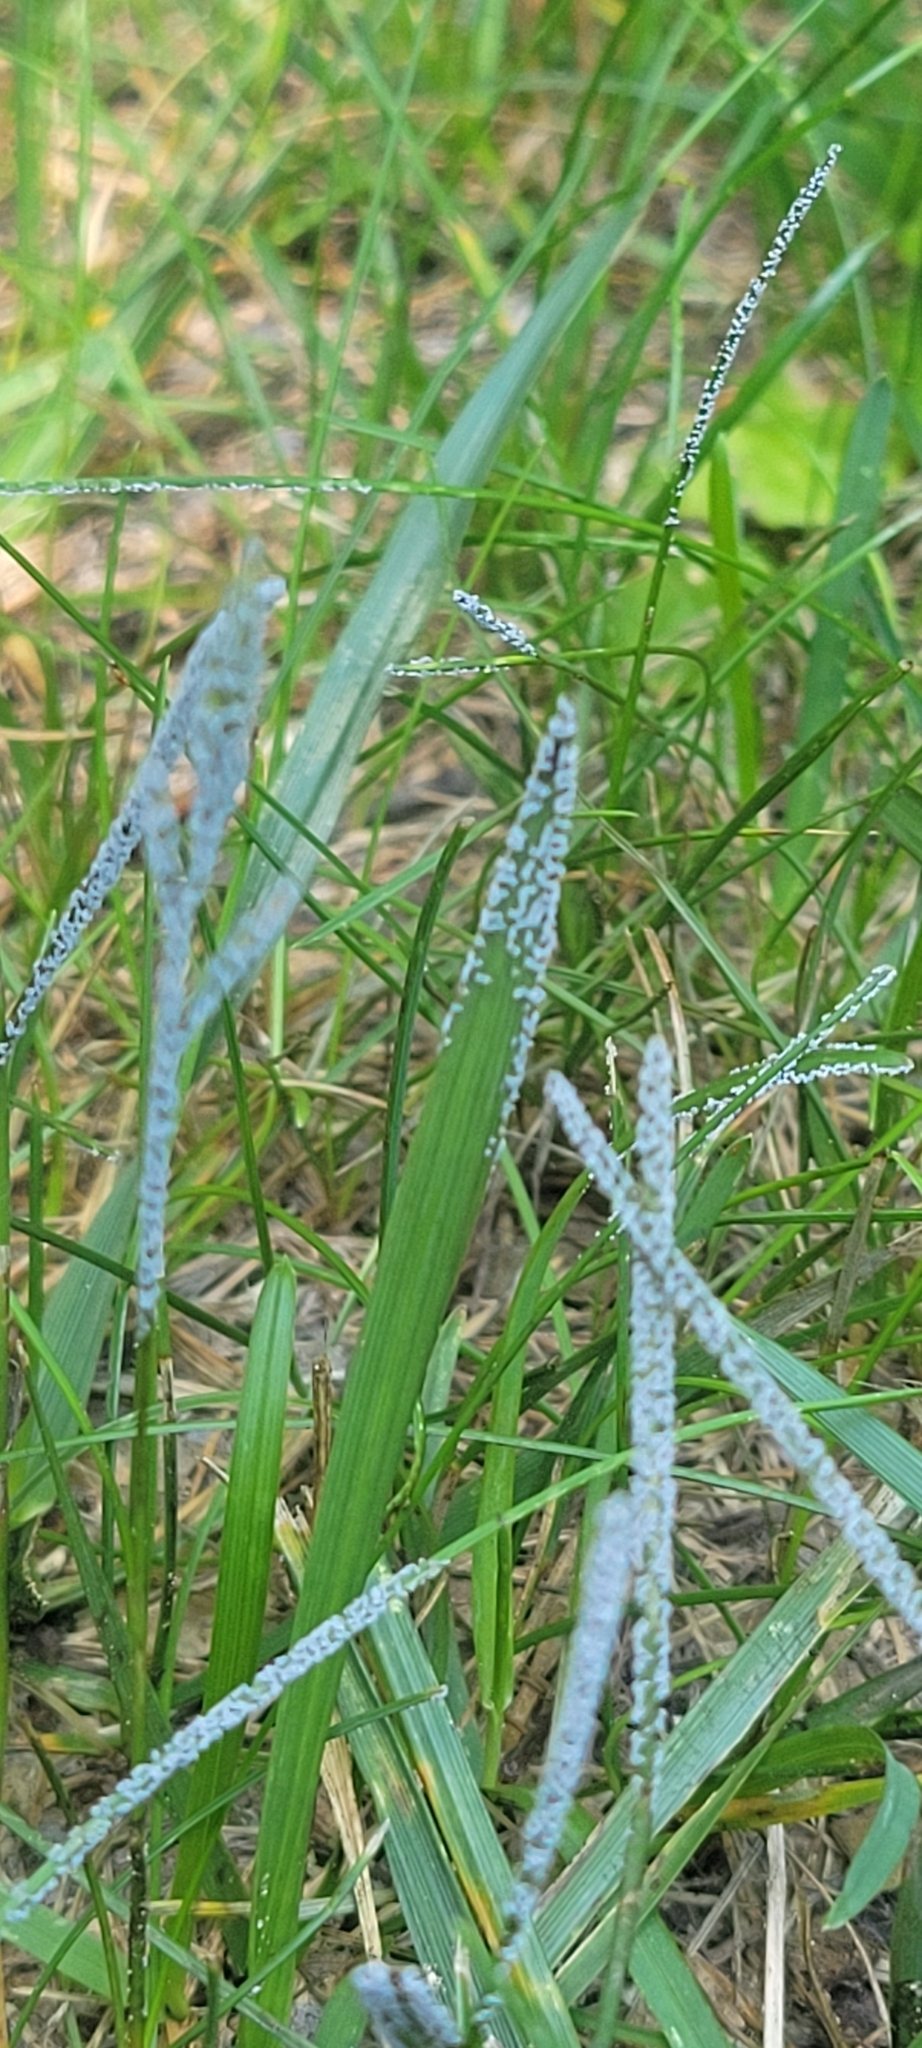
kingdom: Protozoa
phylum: Mycetozoa
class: Myxomycetes
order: Physarales
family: Physaraceae
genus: Physarum
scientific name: Physarum cinereum
